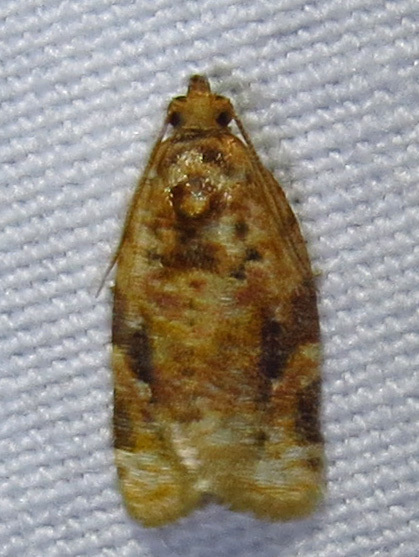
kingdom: Animalia
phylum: Arthropoda
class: Insecta
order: Lepidoptera
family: Tortricidae
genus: Argyrotaenia
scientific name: Argyrotaenia velutinana
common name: Red-banded leafroller moth
